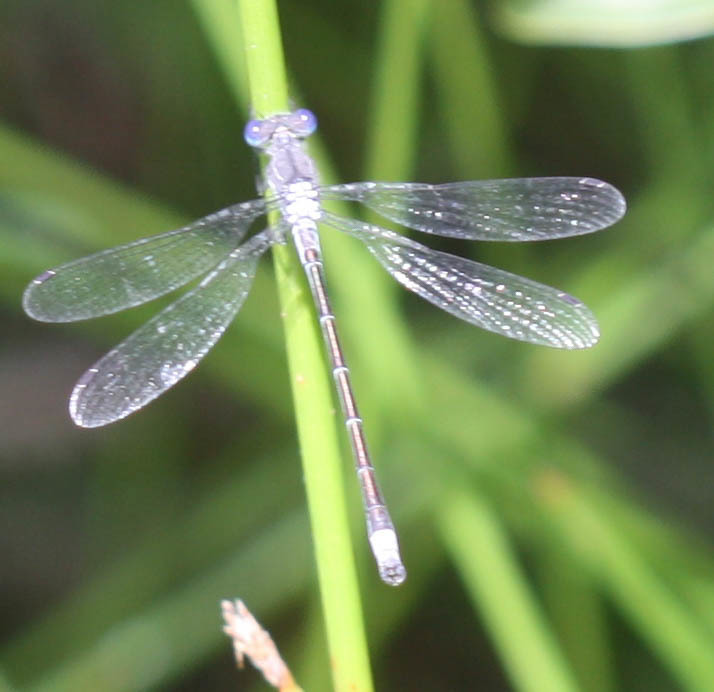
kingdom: Animalia
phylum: Arthropoda
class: Insecta
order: Odonata
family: Lestidae
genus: Lestes
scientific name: Lestes stultus
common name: Black spreadwing
